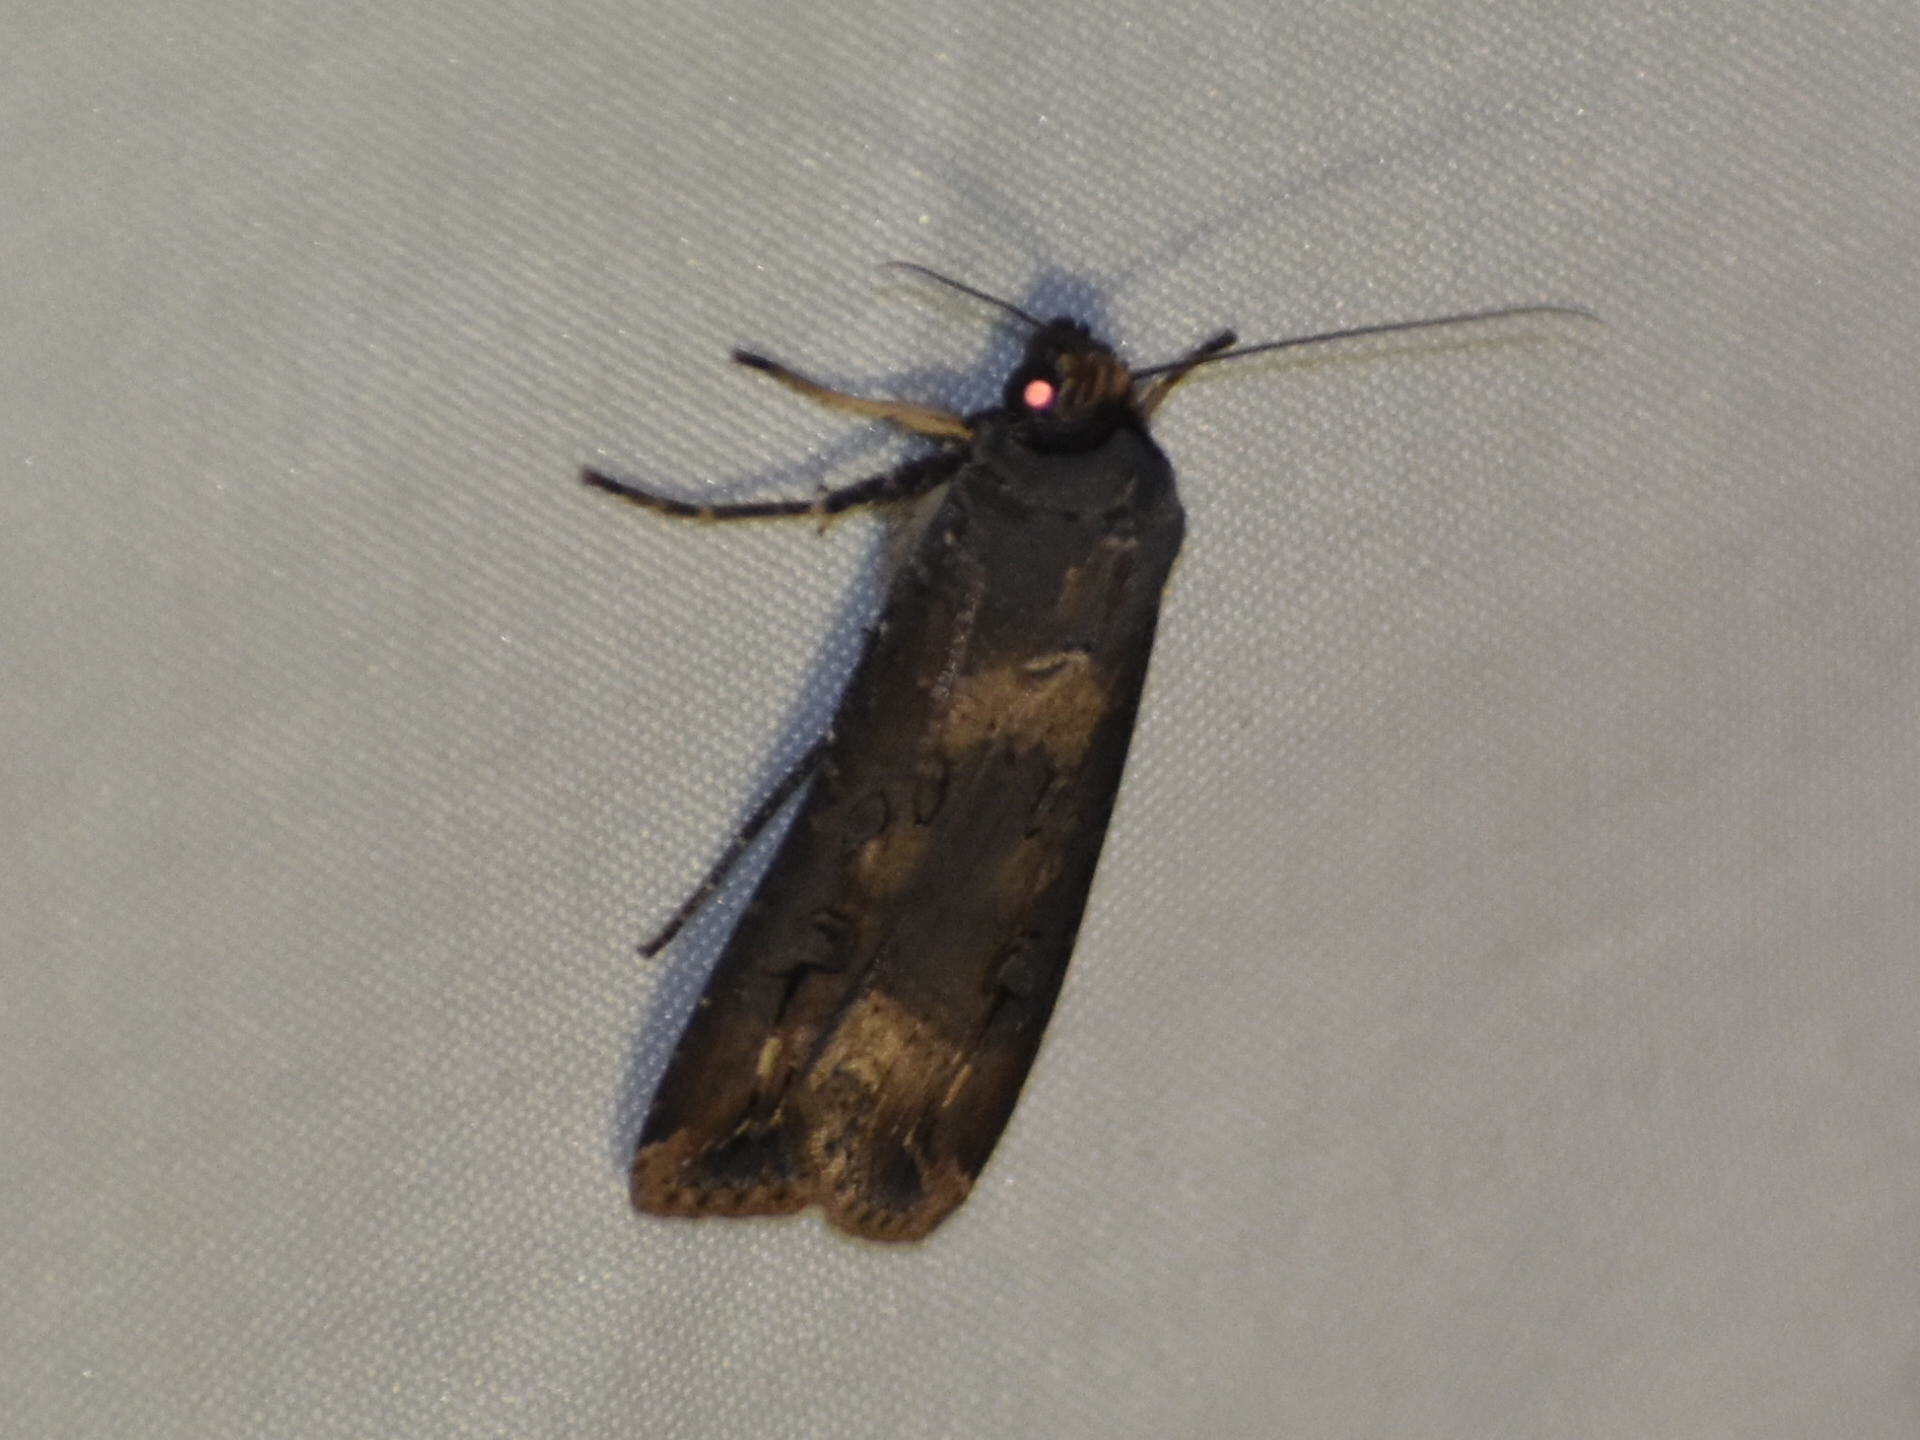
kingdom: Animalia
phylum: Arthropoda
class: Insecta
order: Lepidoptera
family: Noctuidae
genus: Agrotis
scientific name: Agrotis ipsilon
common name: Dark sword-grass
